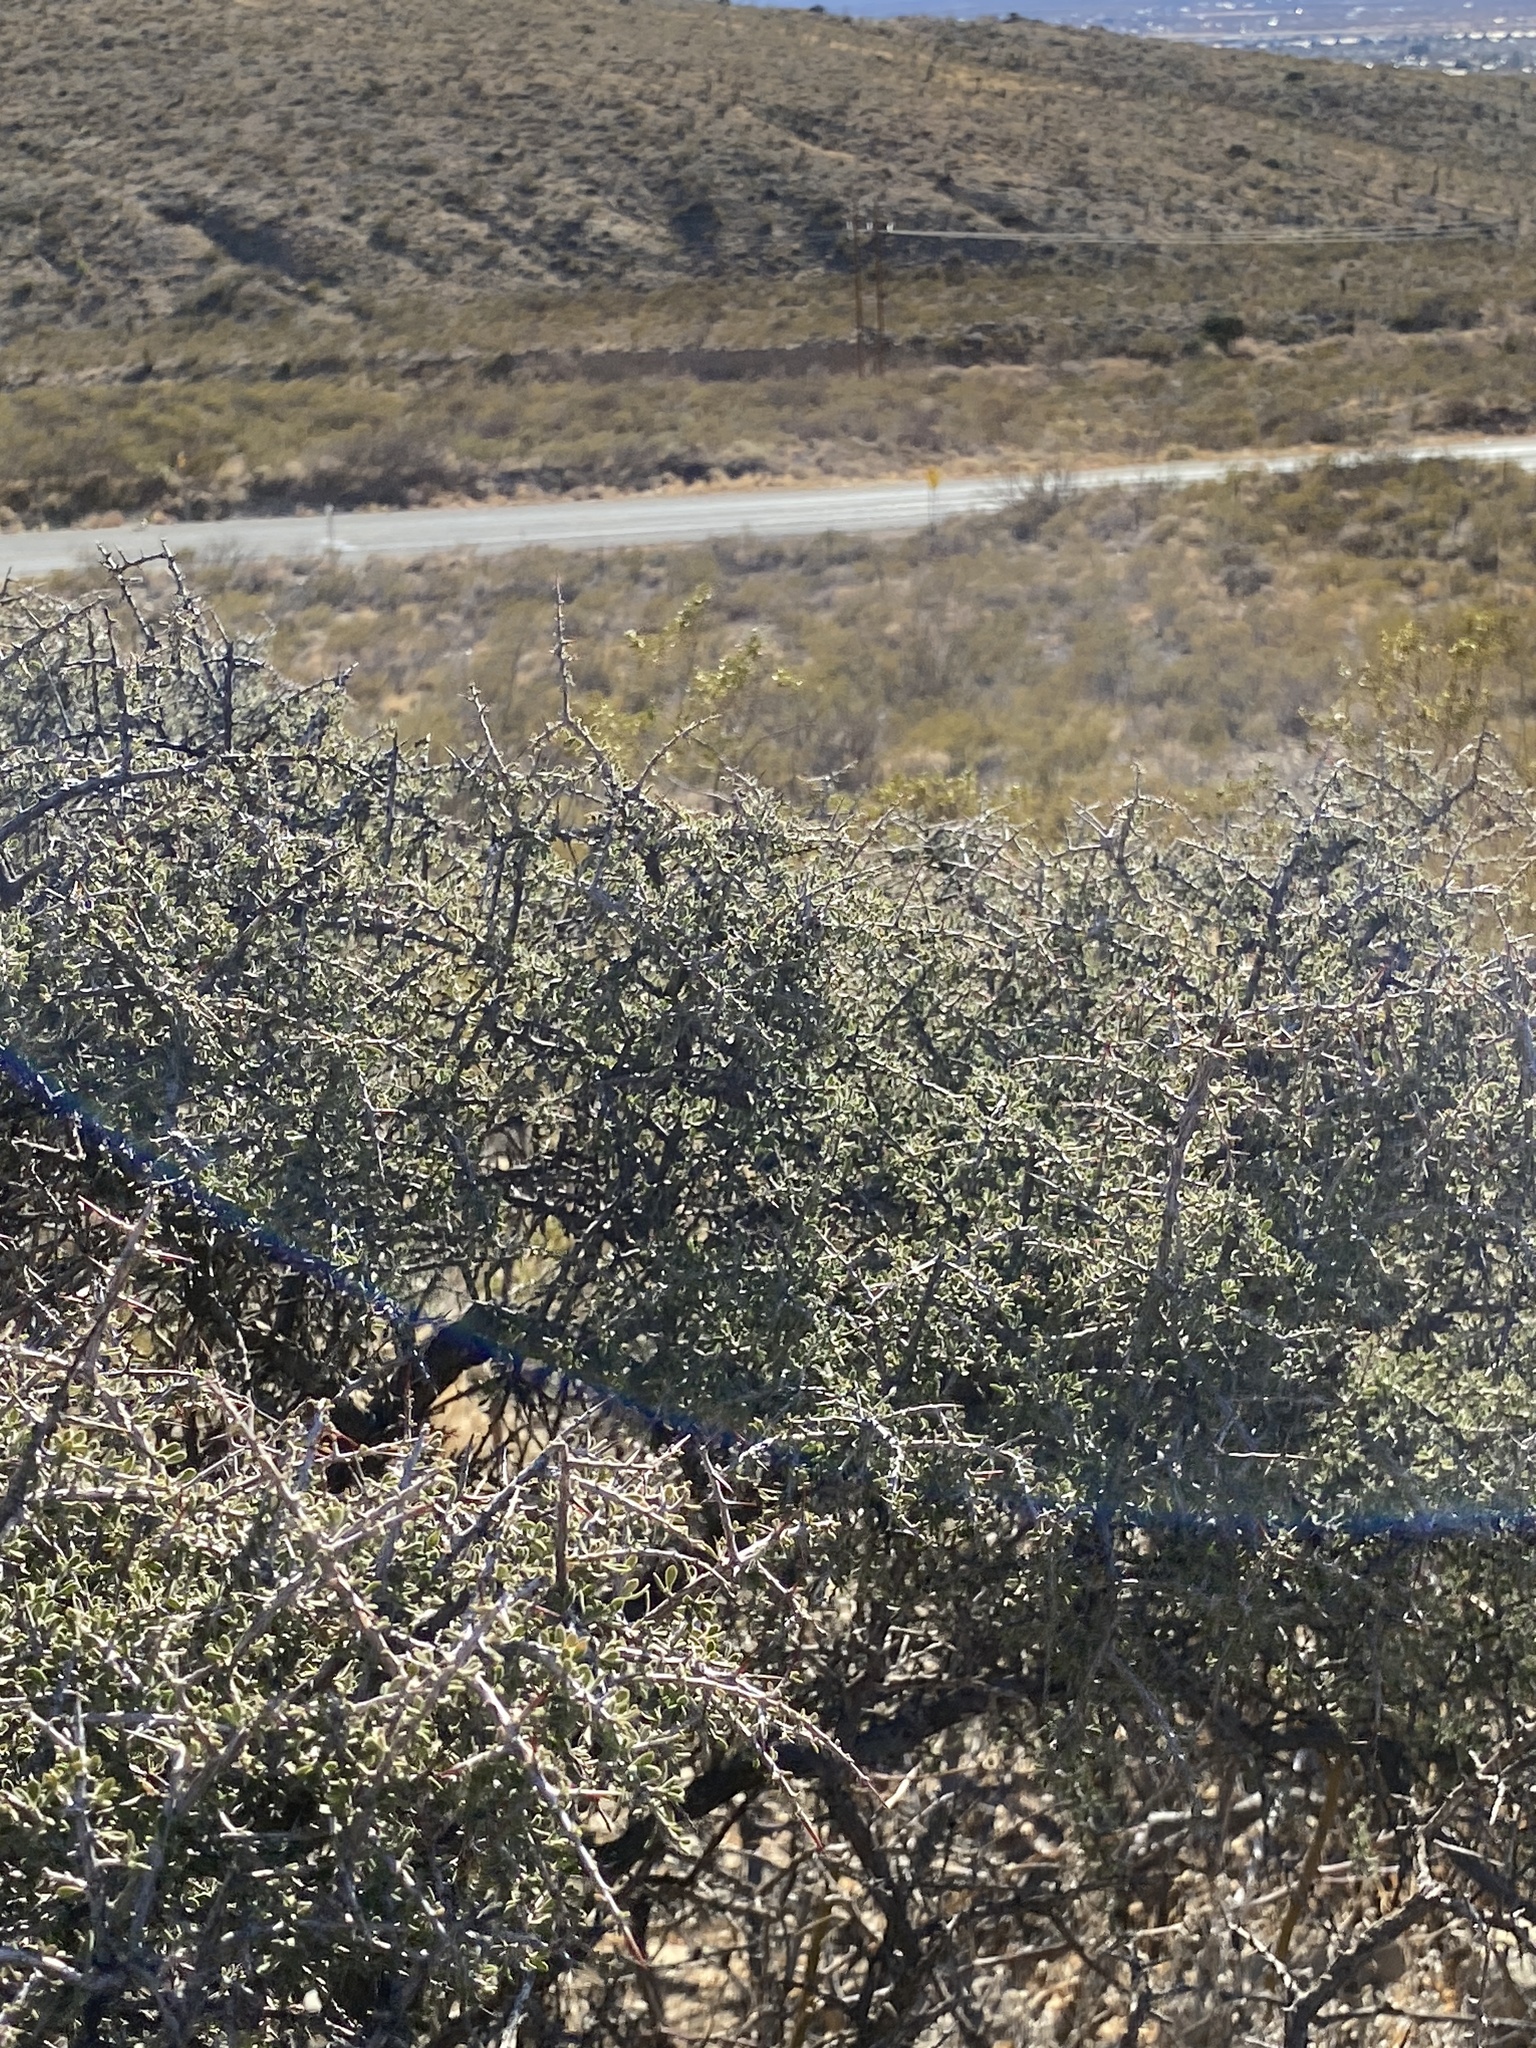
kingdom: Plantae
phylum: Tracheophyta
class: Magnoliopsida
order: Rosales
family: Rhamnaceae
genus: Condalia
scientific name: Condalia warnockii
